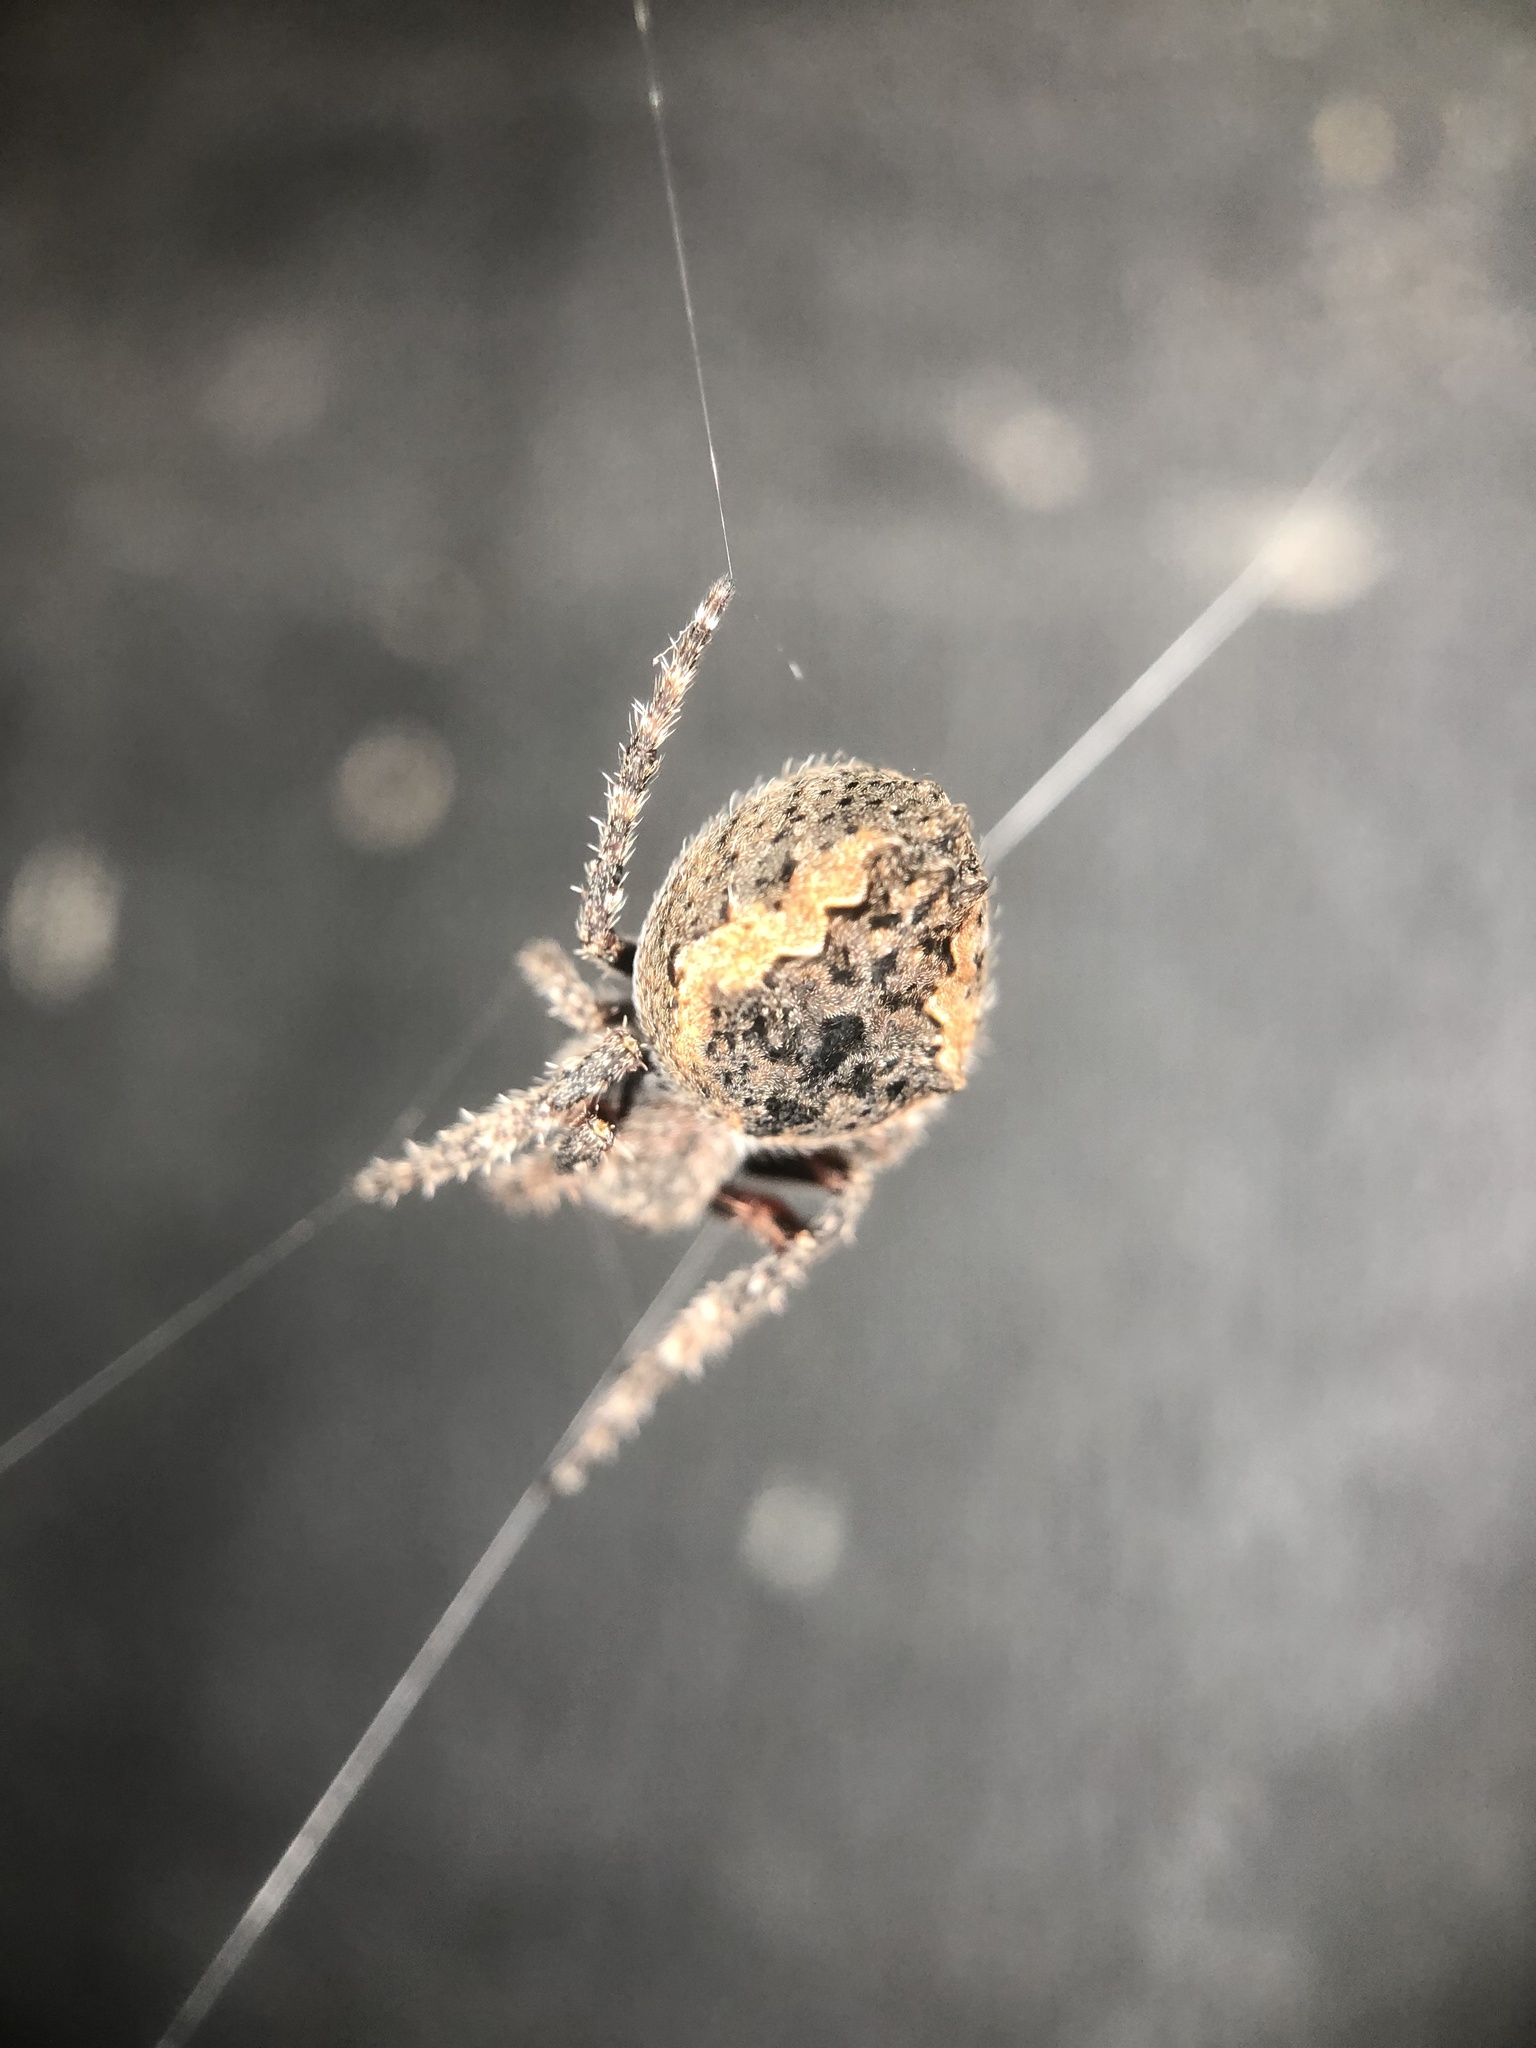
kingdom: Animalia
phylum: Arthropoda
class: Arachnida
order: Araneae
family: Araneidae
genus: Eriophora
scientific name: Eriophora pustulosa
